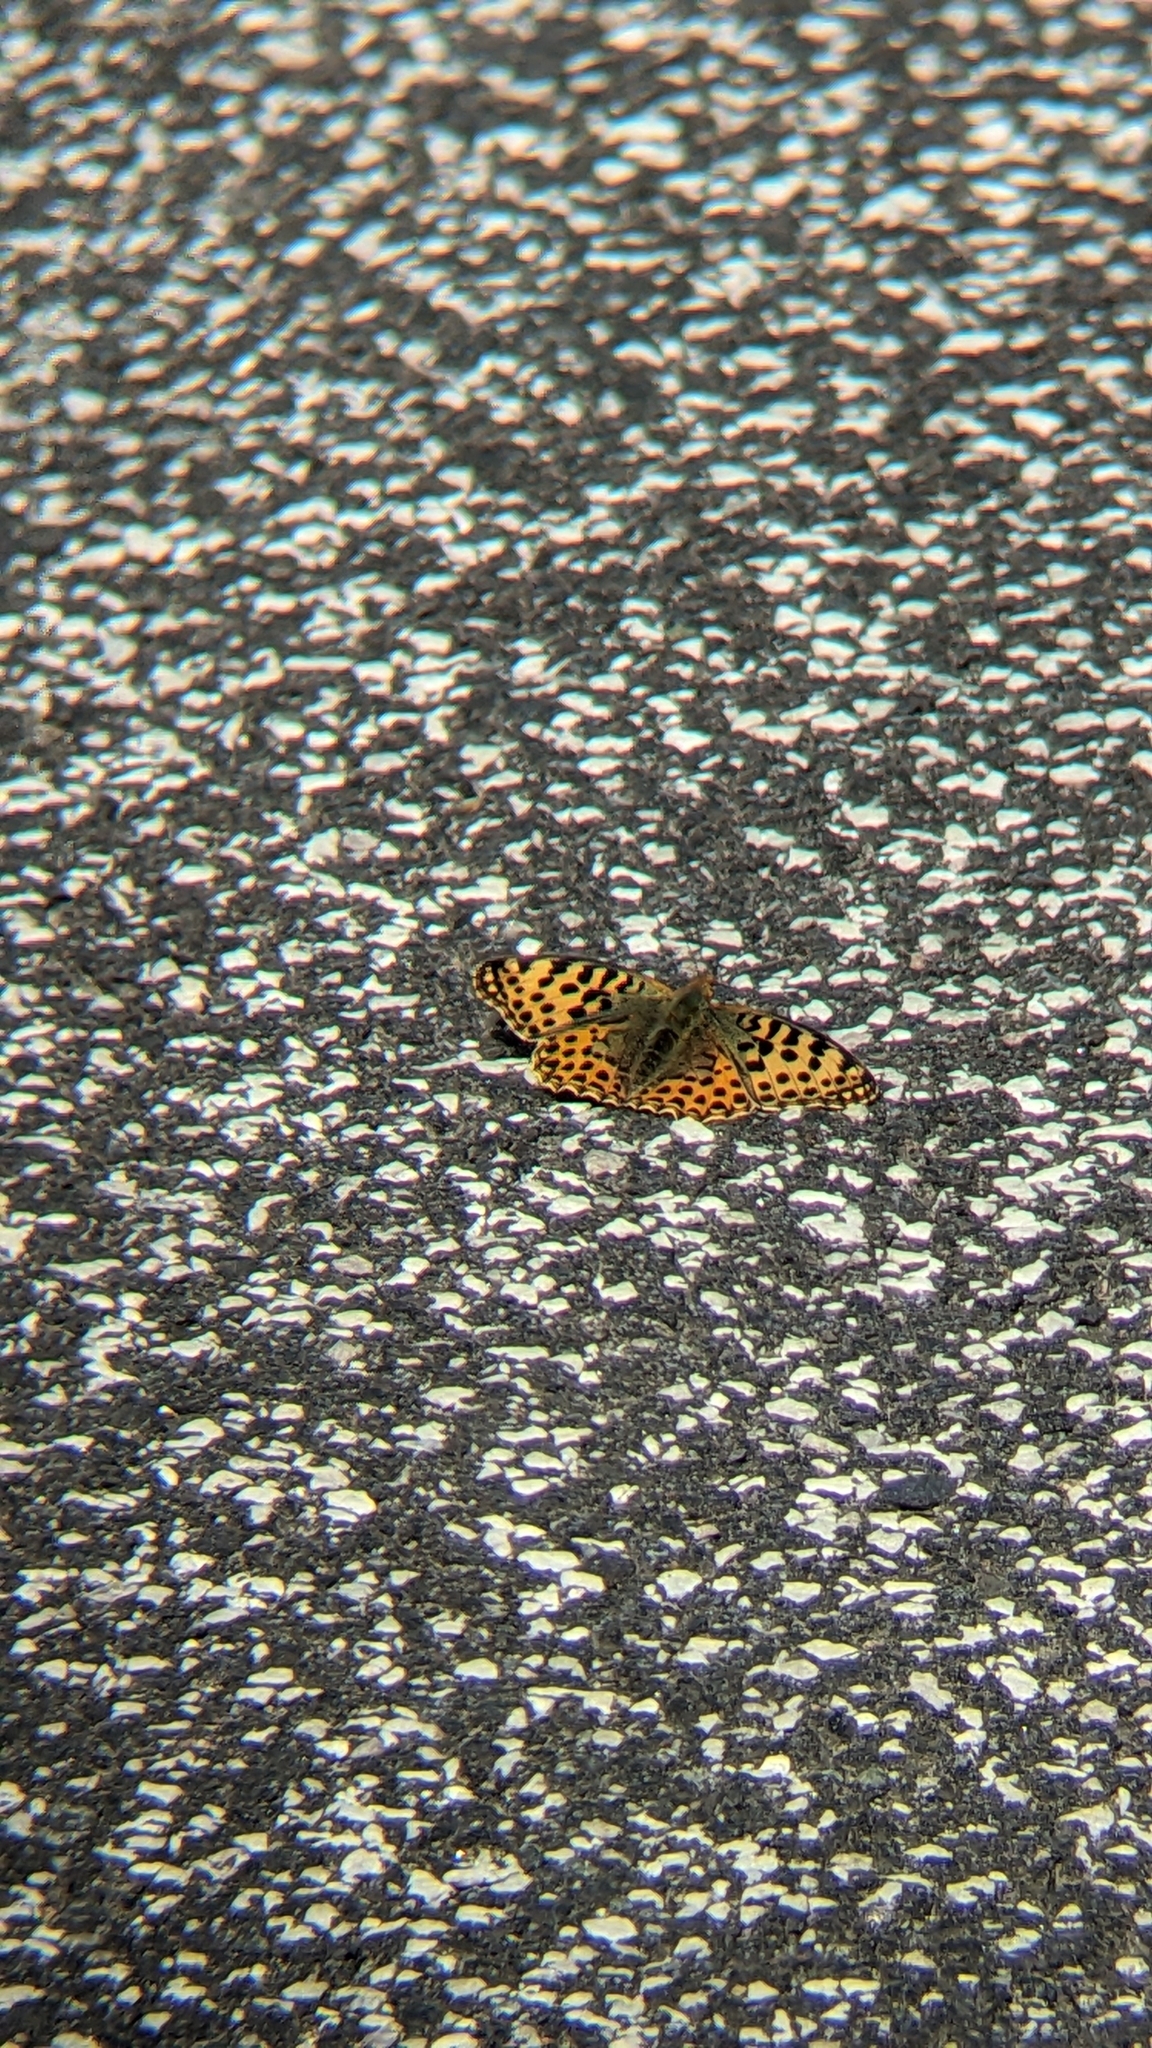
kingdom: Animalia
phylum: Arthropoda
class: Insecta
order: Lepidoptera
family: Nymphalidae
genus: Issoria
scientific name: Issoria lathonia
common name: Queen of spain fritillary
